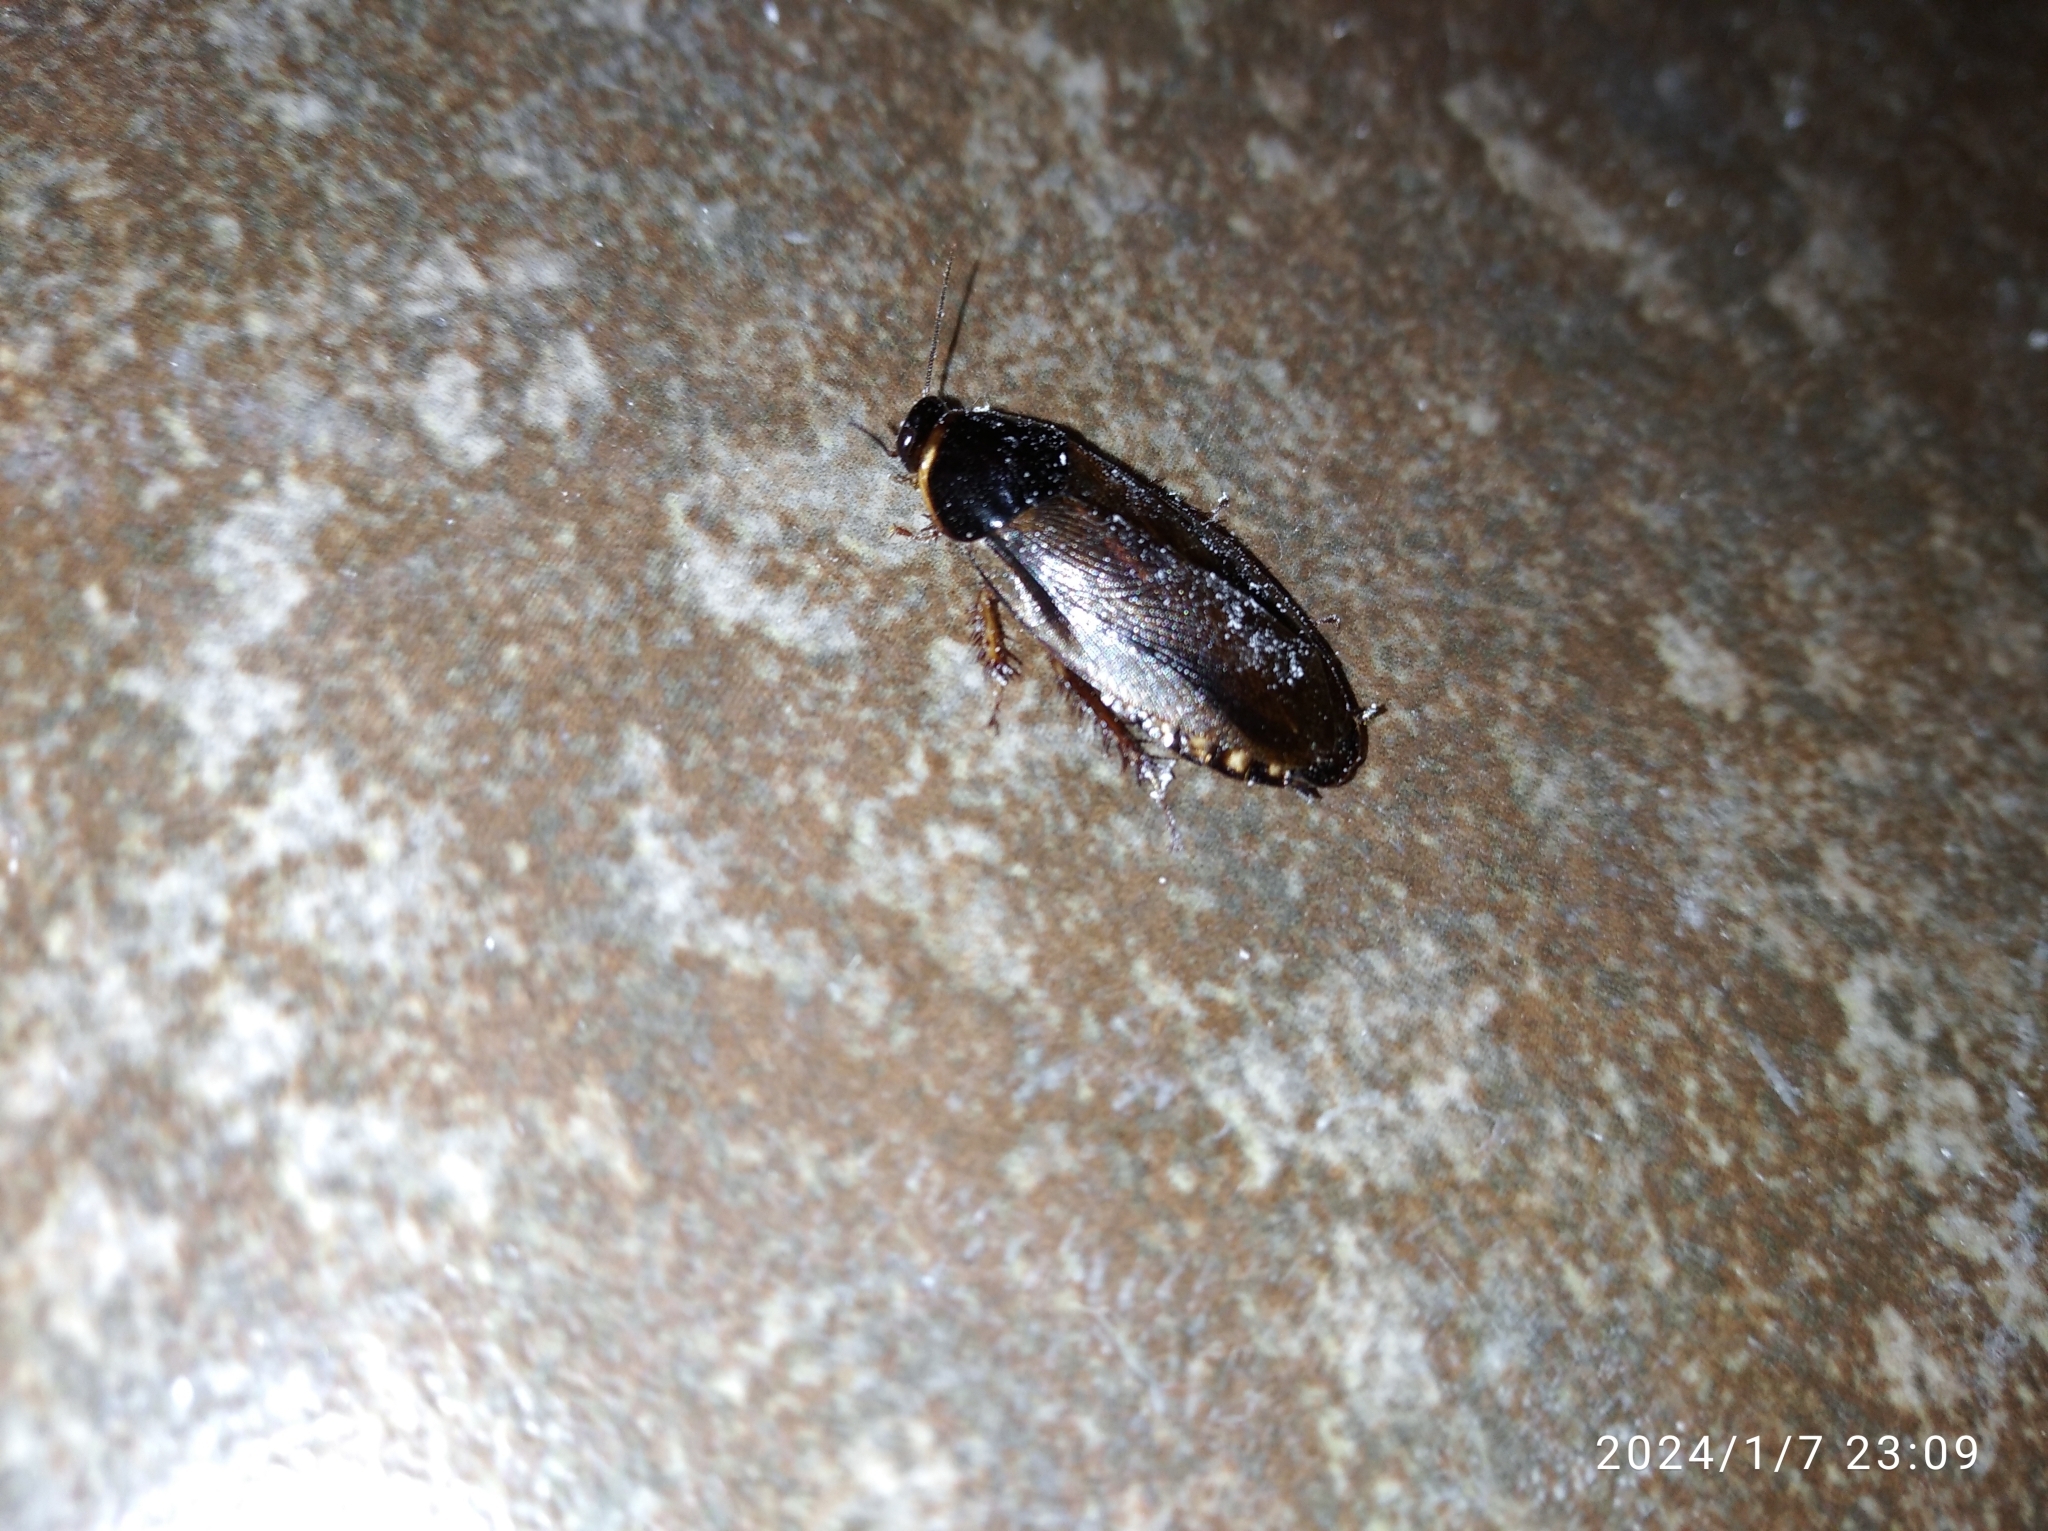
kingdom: Animalia
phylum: Arthropoda
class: Insecta
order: Blattodea
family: Blaberidae
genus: Pycnoscelus
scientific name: Pycnoscelus surinamensis
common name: Surinam cockroach
